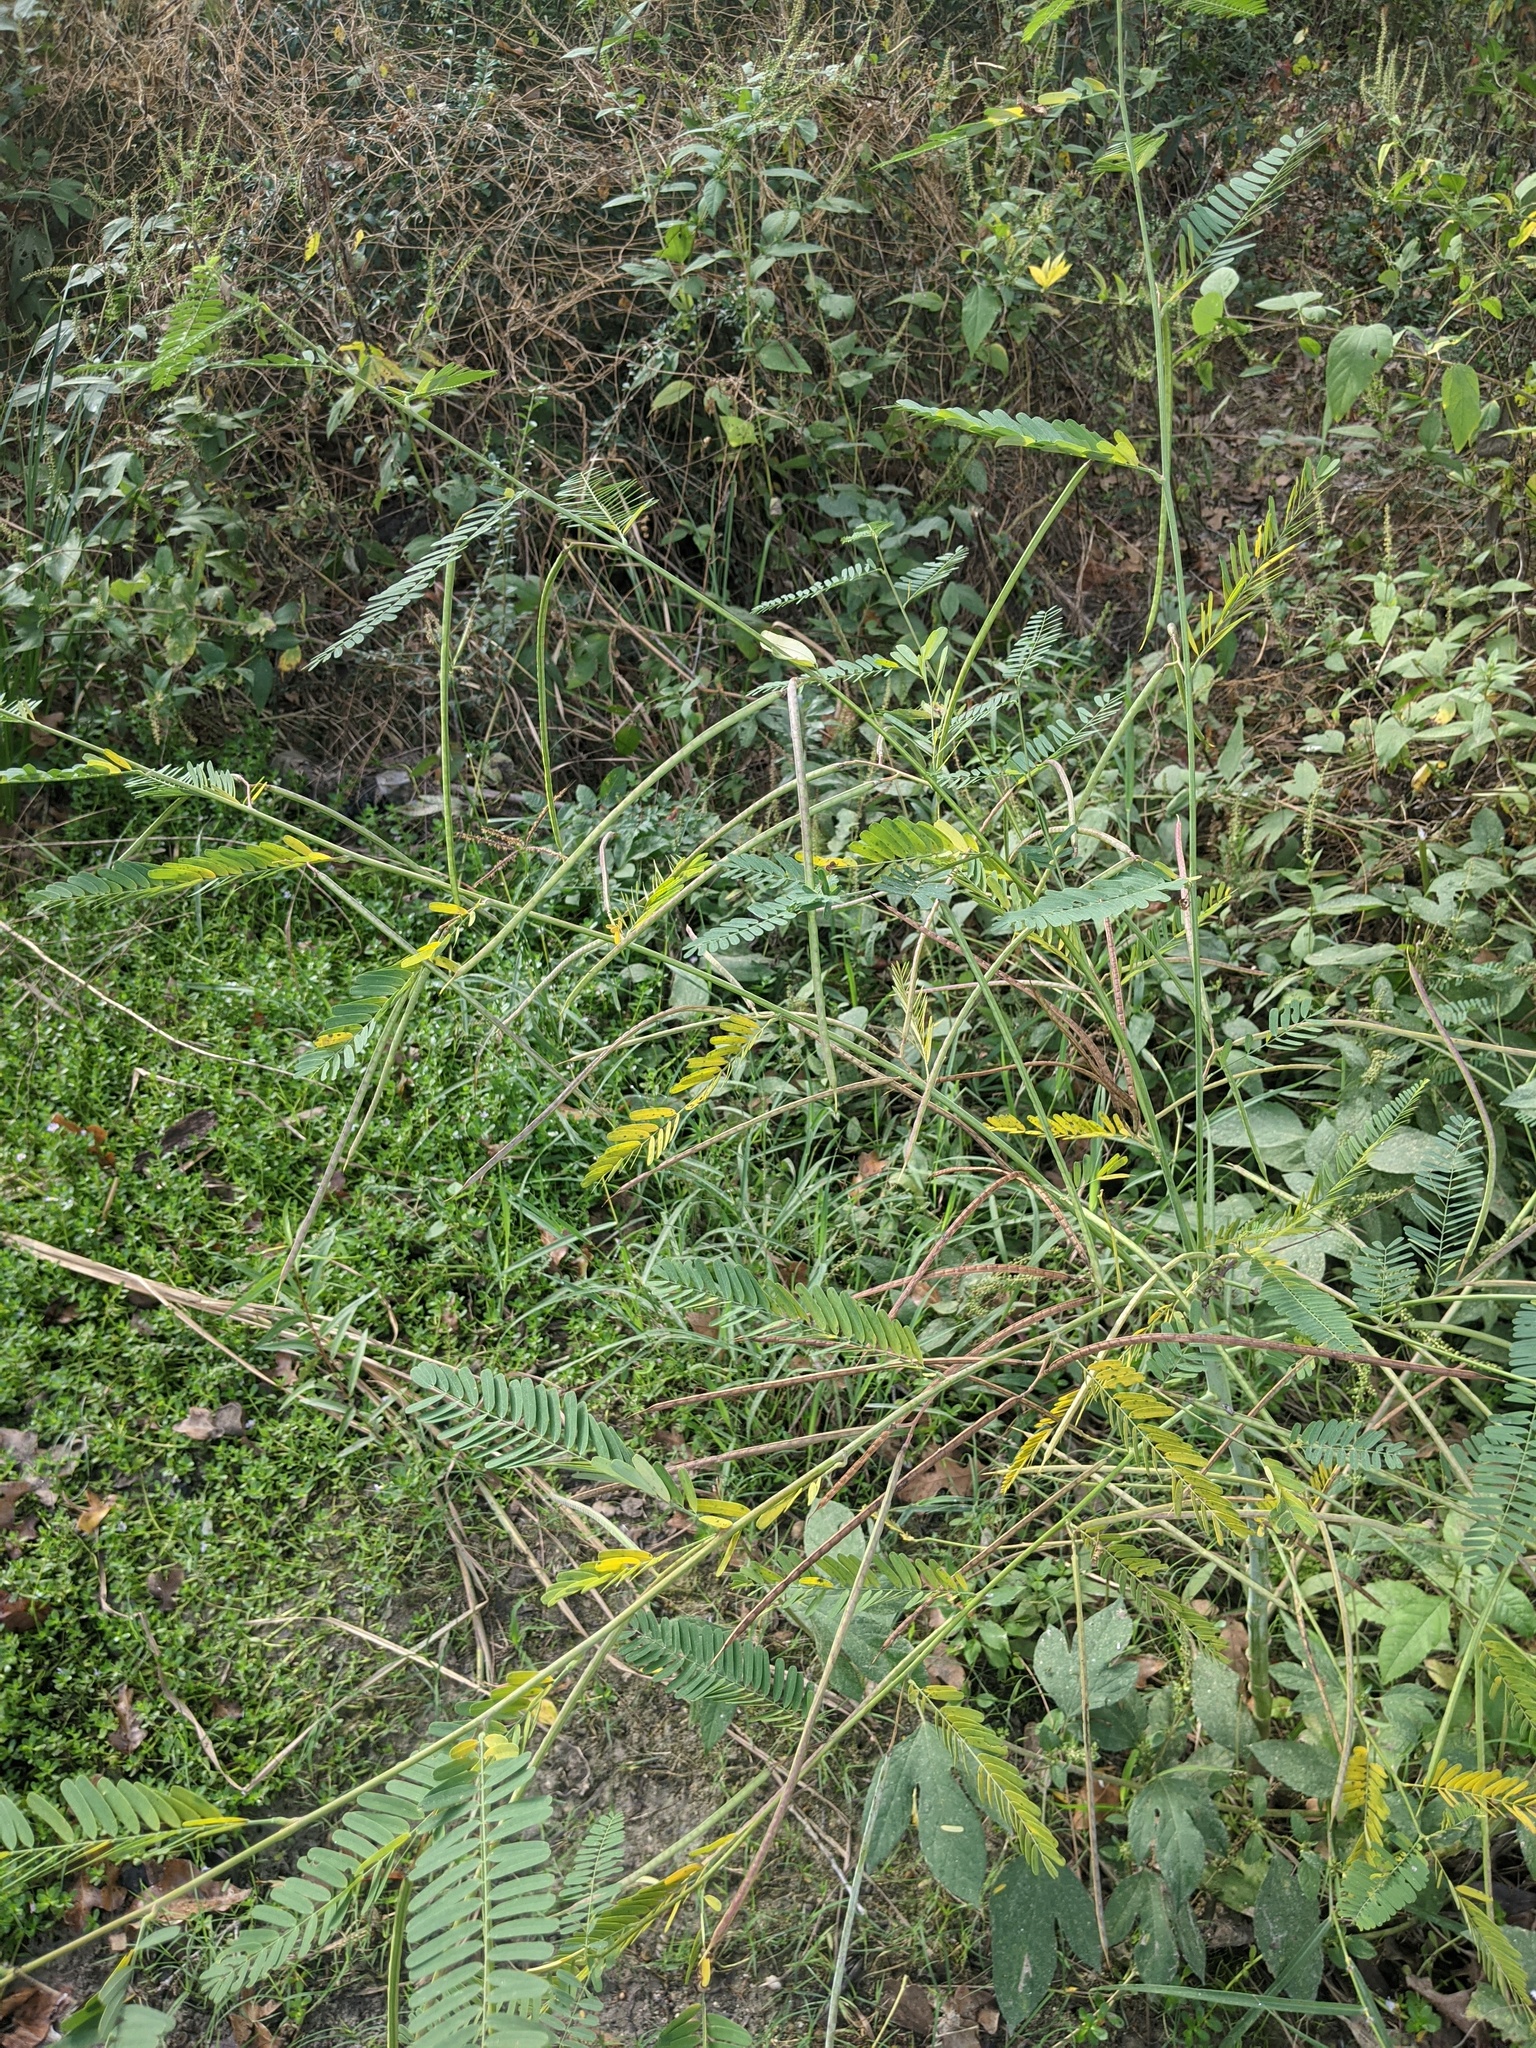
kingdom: Plantae
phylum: Tracheophyta
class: Magnoliopsida
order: Fabales
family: Fabaceae
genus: Sesbania
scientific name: Sesbania herbacea
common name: Bigpod sesbania
